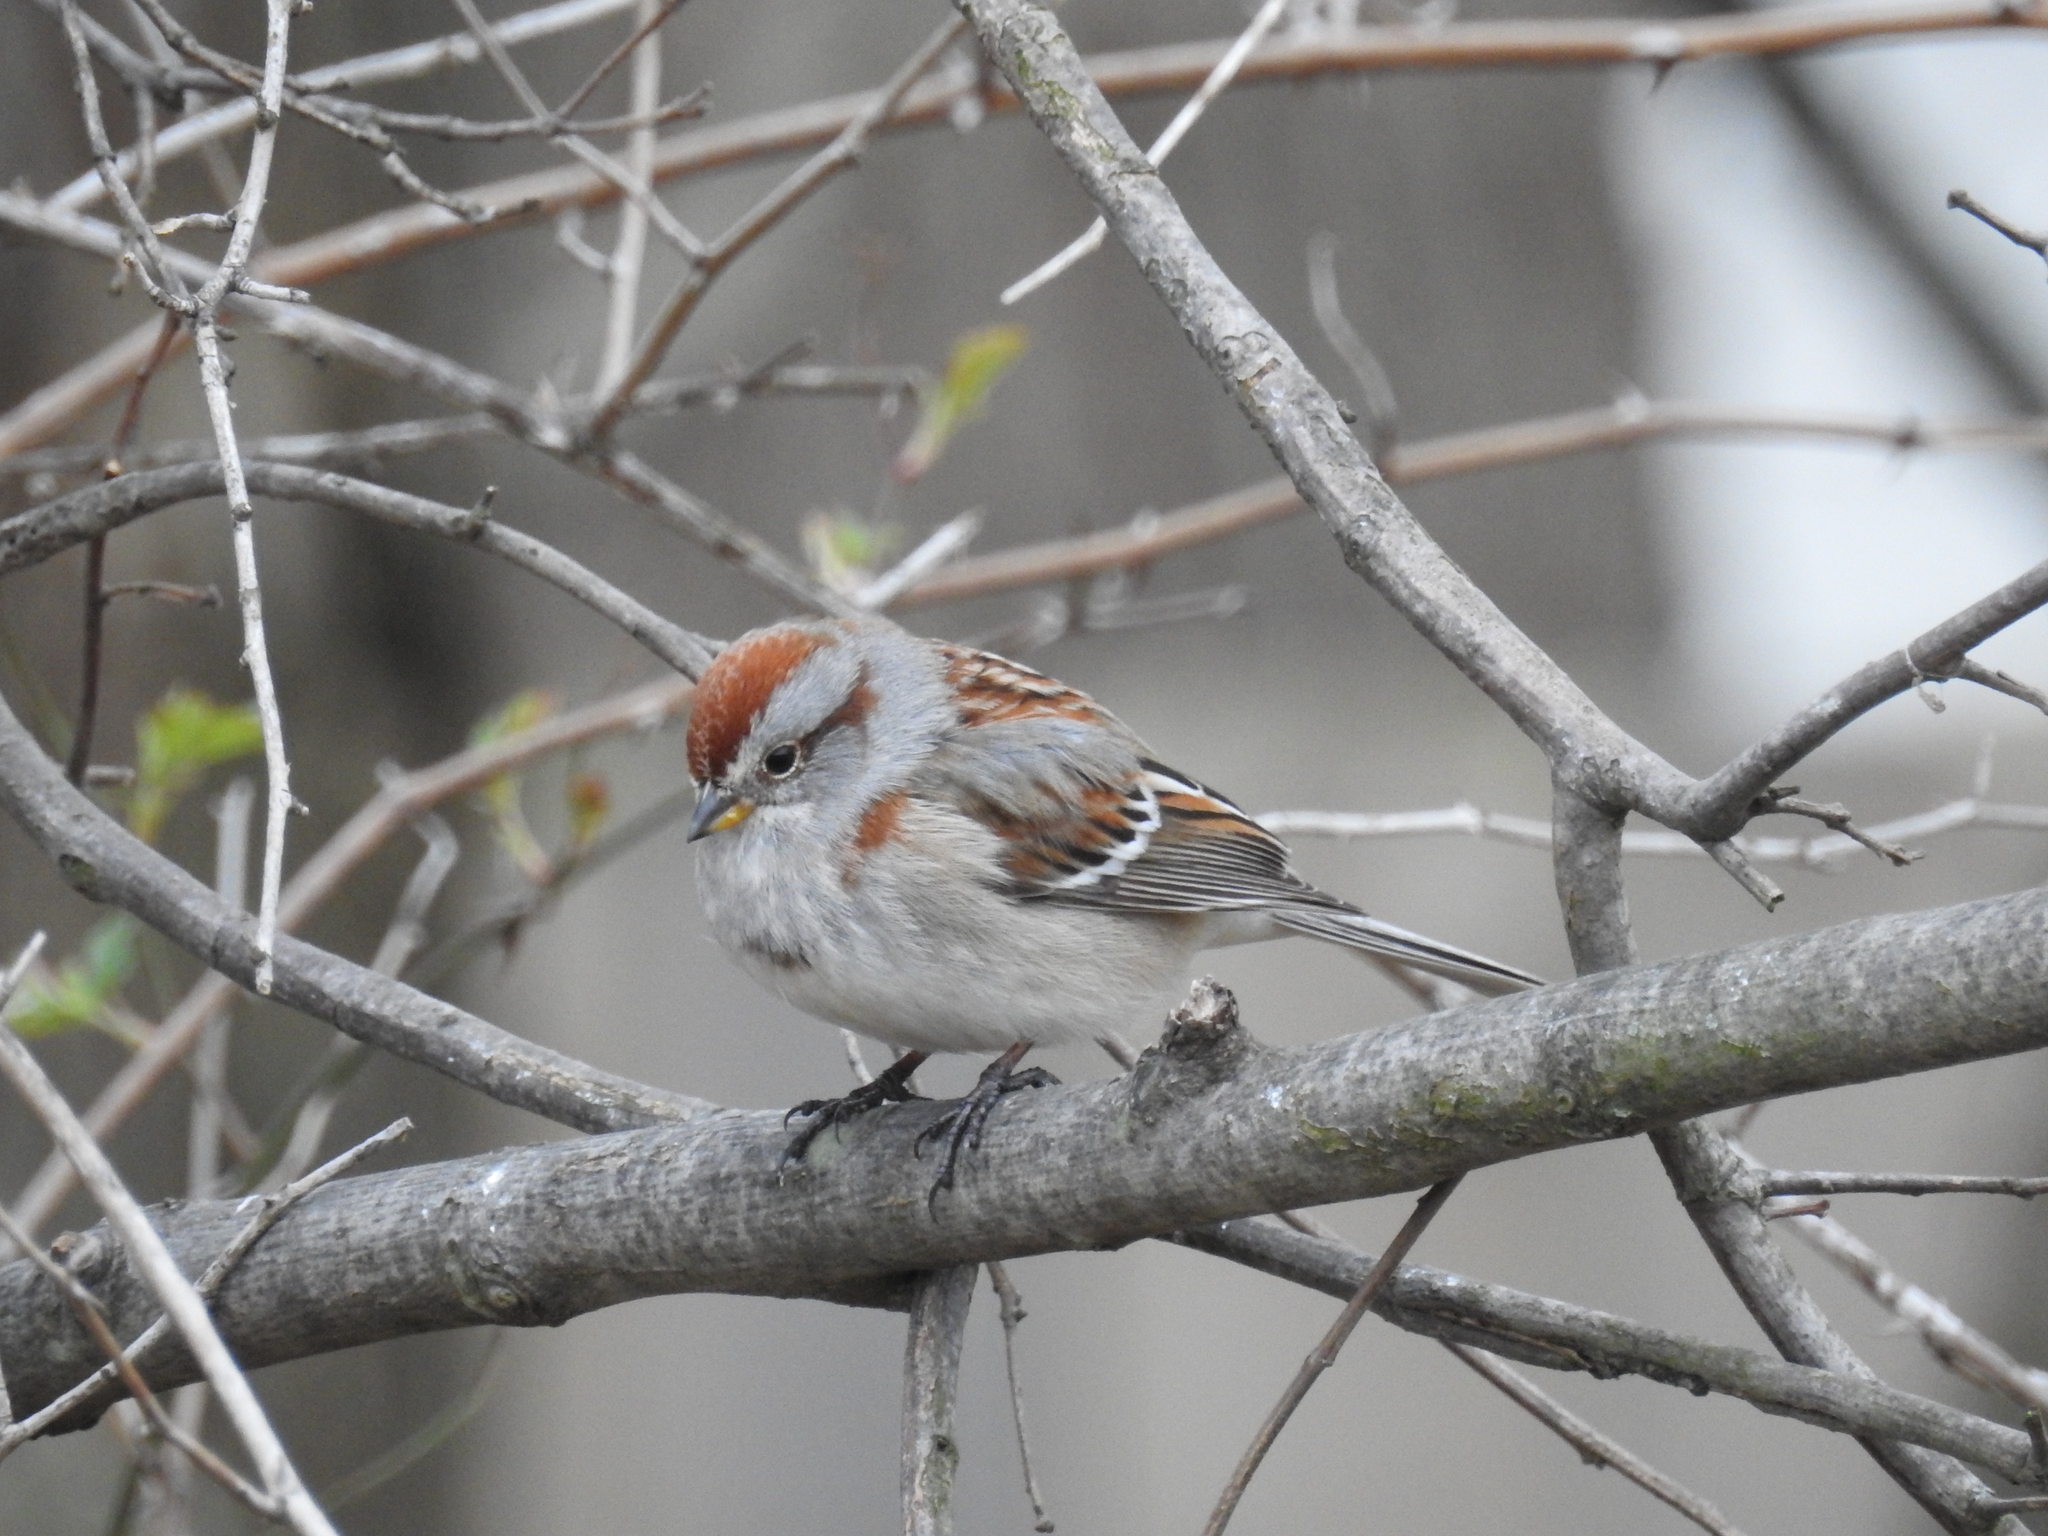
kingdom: Animalia
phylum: Chordata
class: Aves
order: Passeriformes
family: Passerellidae
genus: Spizelloides
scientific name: Spizelloides arborea
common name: American tree sparrow
